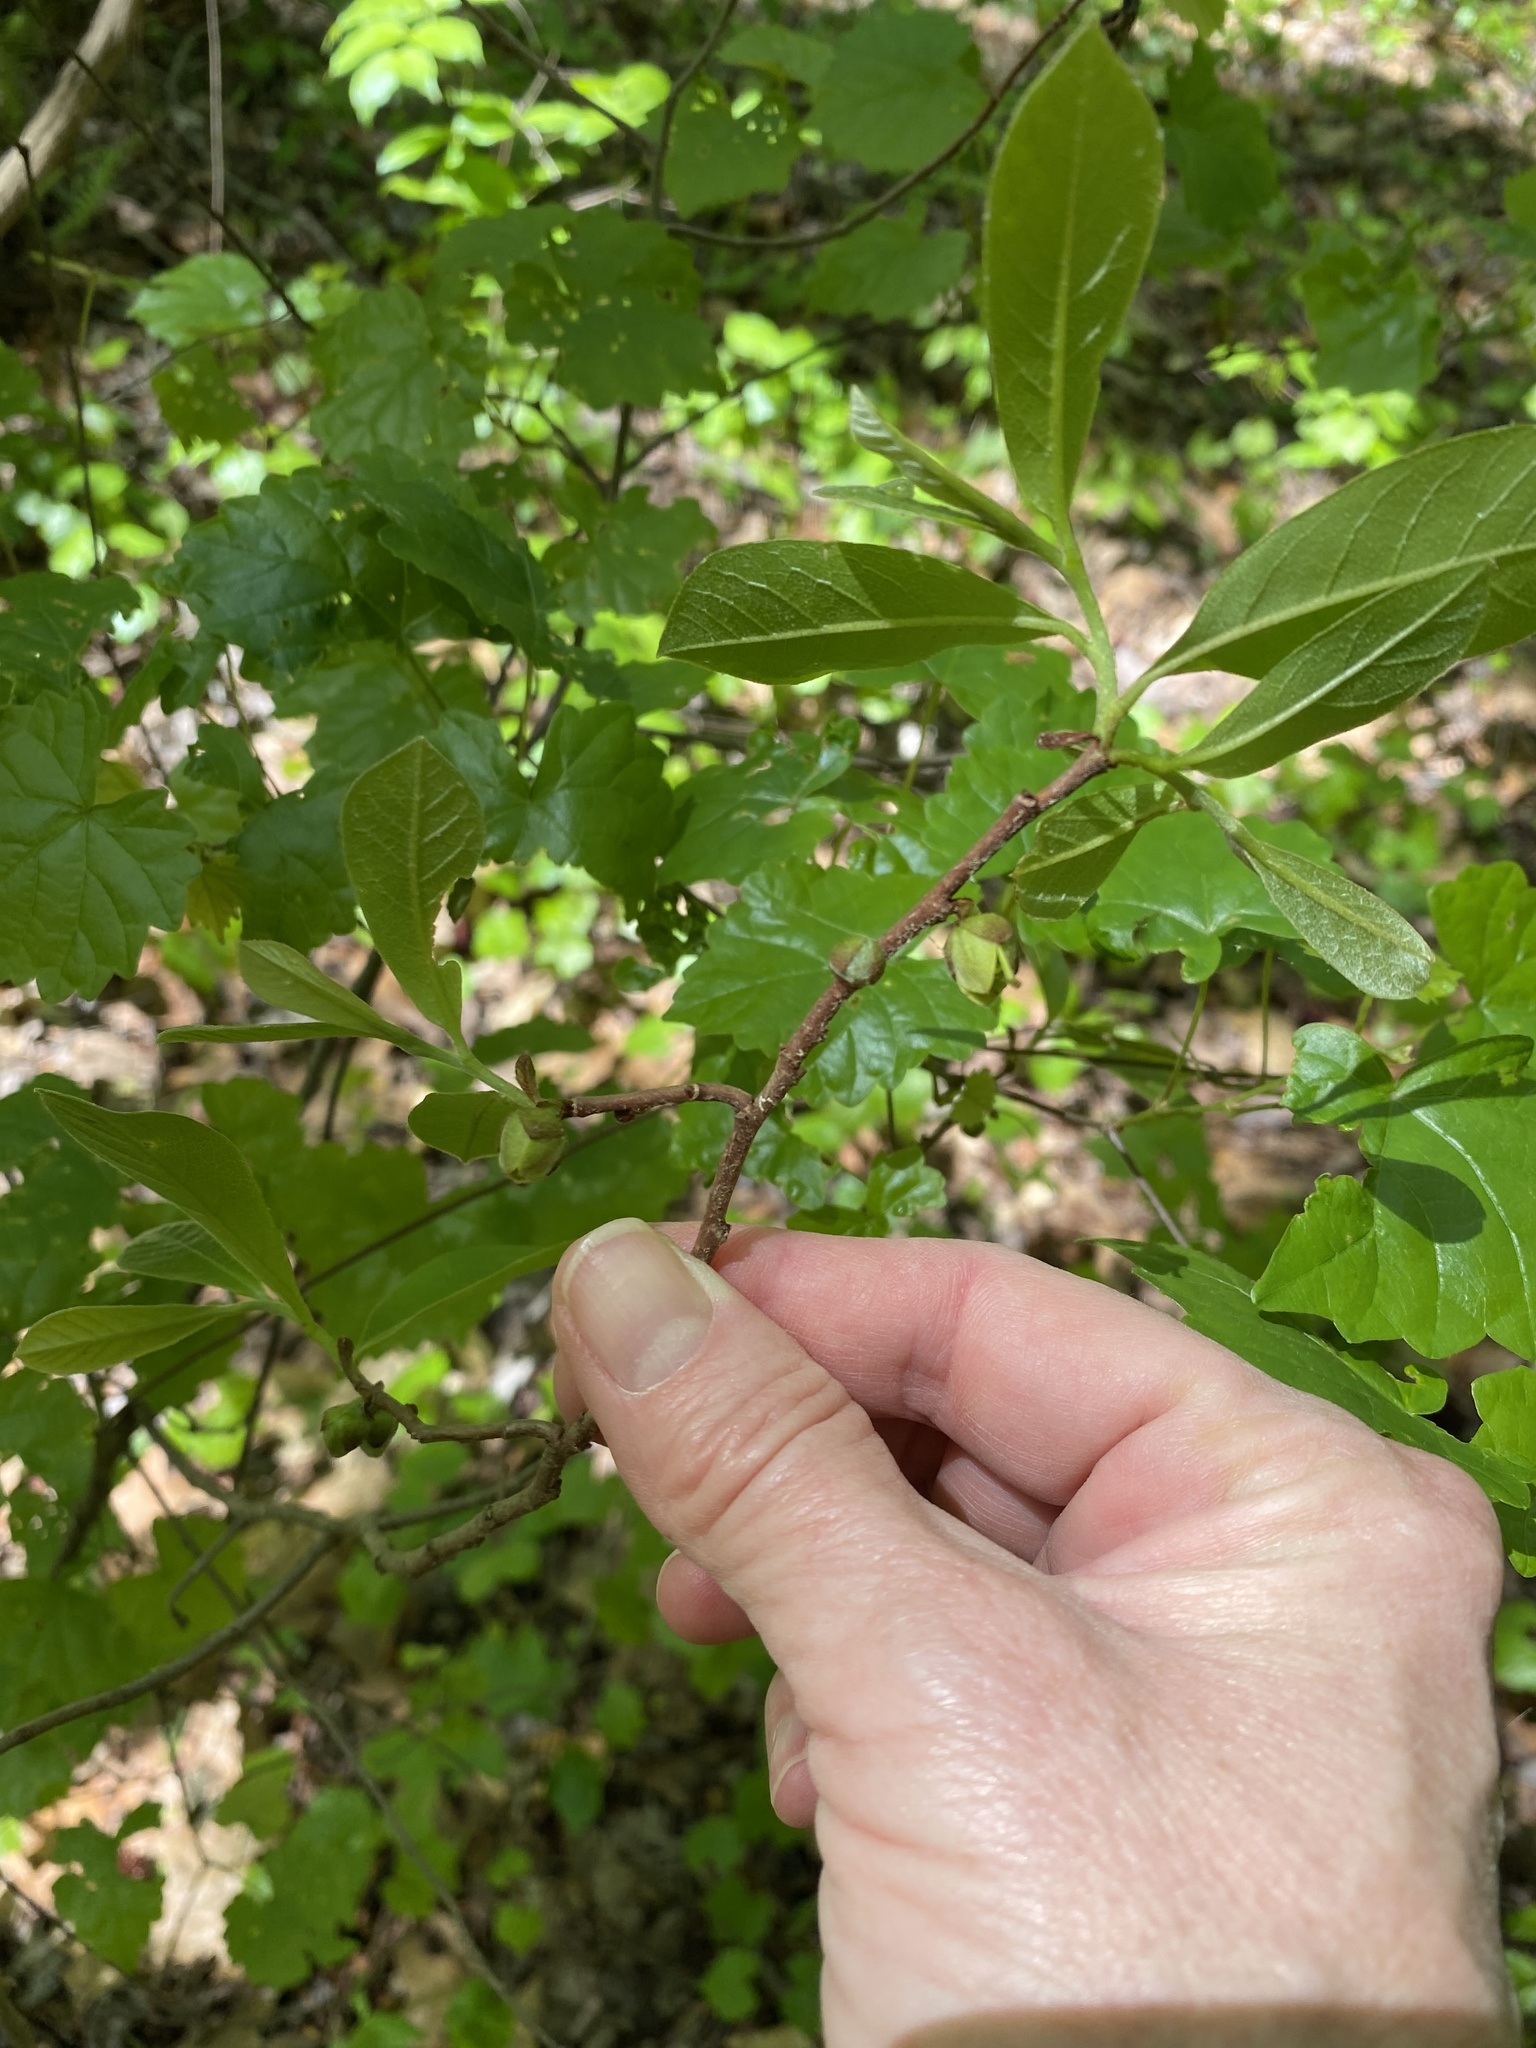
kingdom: Plantae
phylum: Tracheophyta
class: Magnoliopsida
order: Magnoliales
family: Annonaceae
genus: Asimina
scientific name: Asimina parviflora
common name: Dwarf pawpaw
